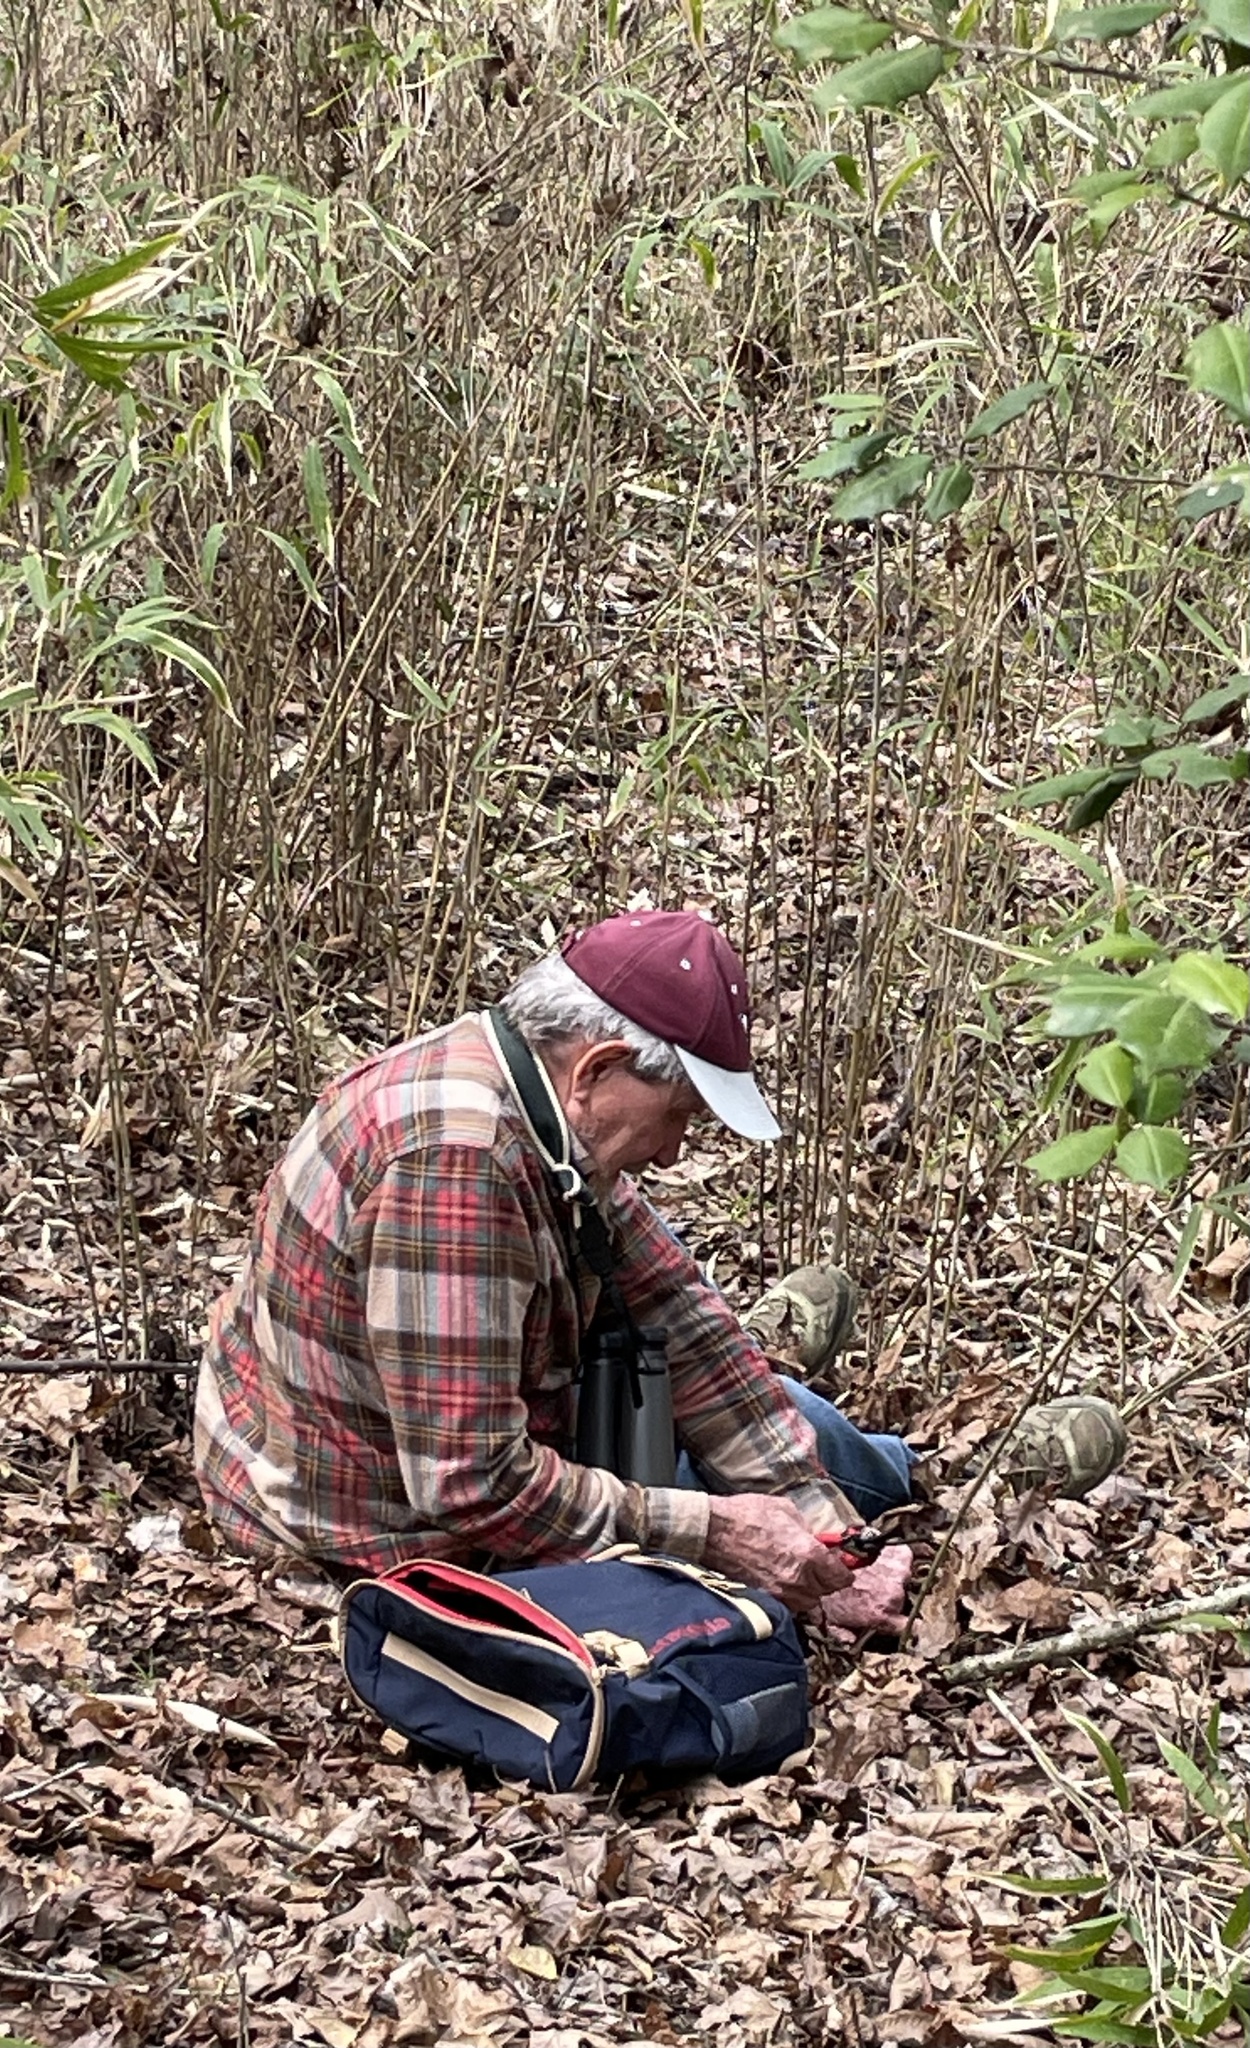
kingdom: Plantae
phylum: Tracheophyta
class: Liliopsida
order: Poales
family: Poaceae
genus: Arundinaria
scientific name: Arundinaria tecta
